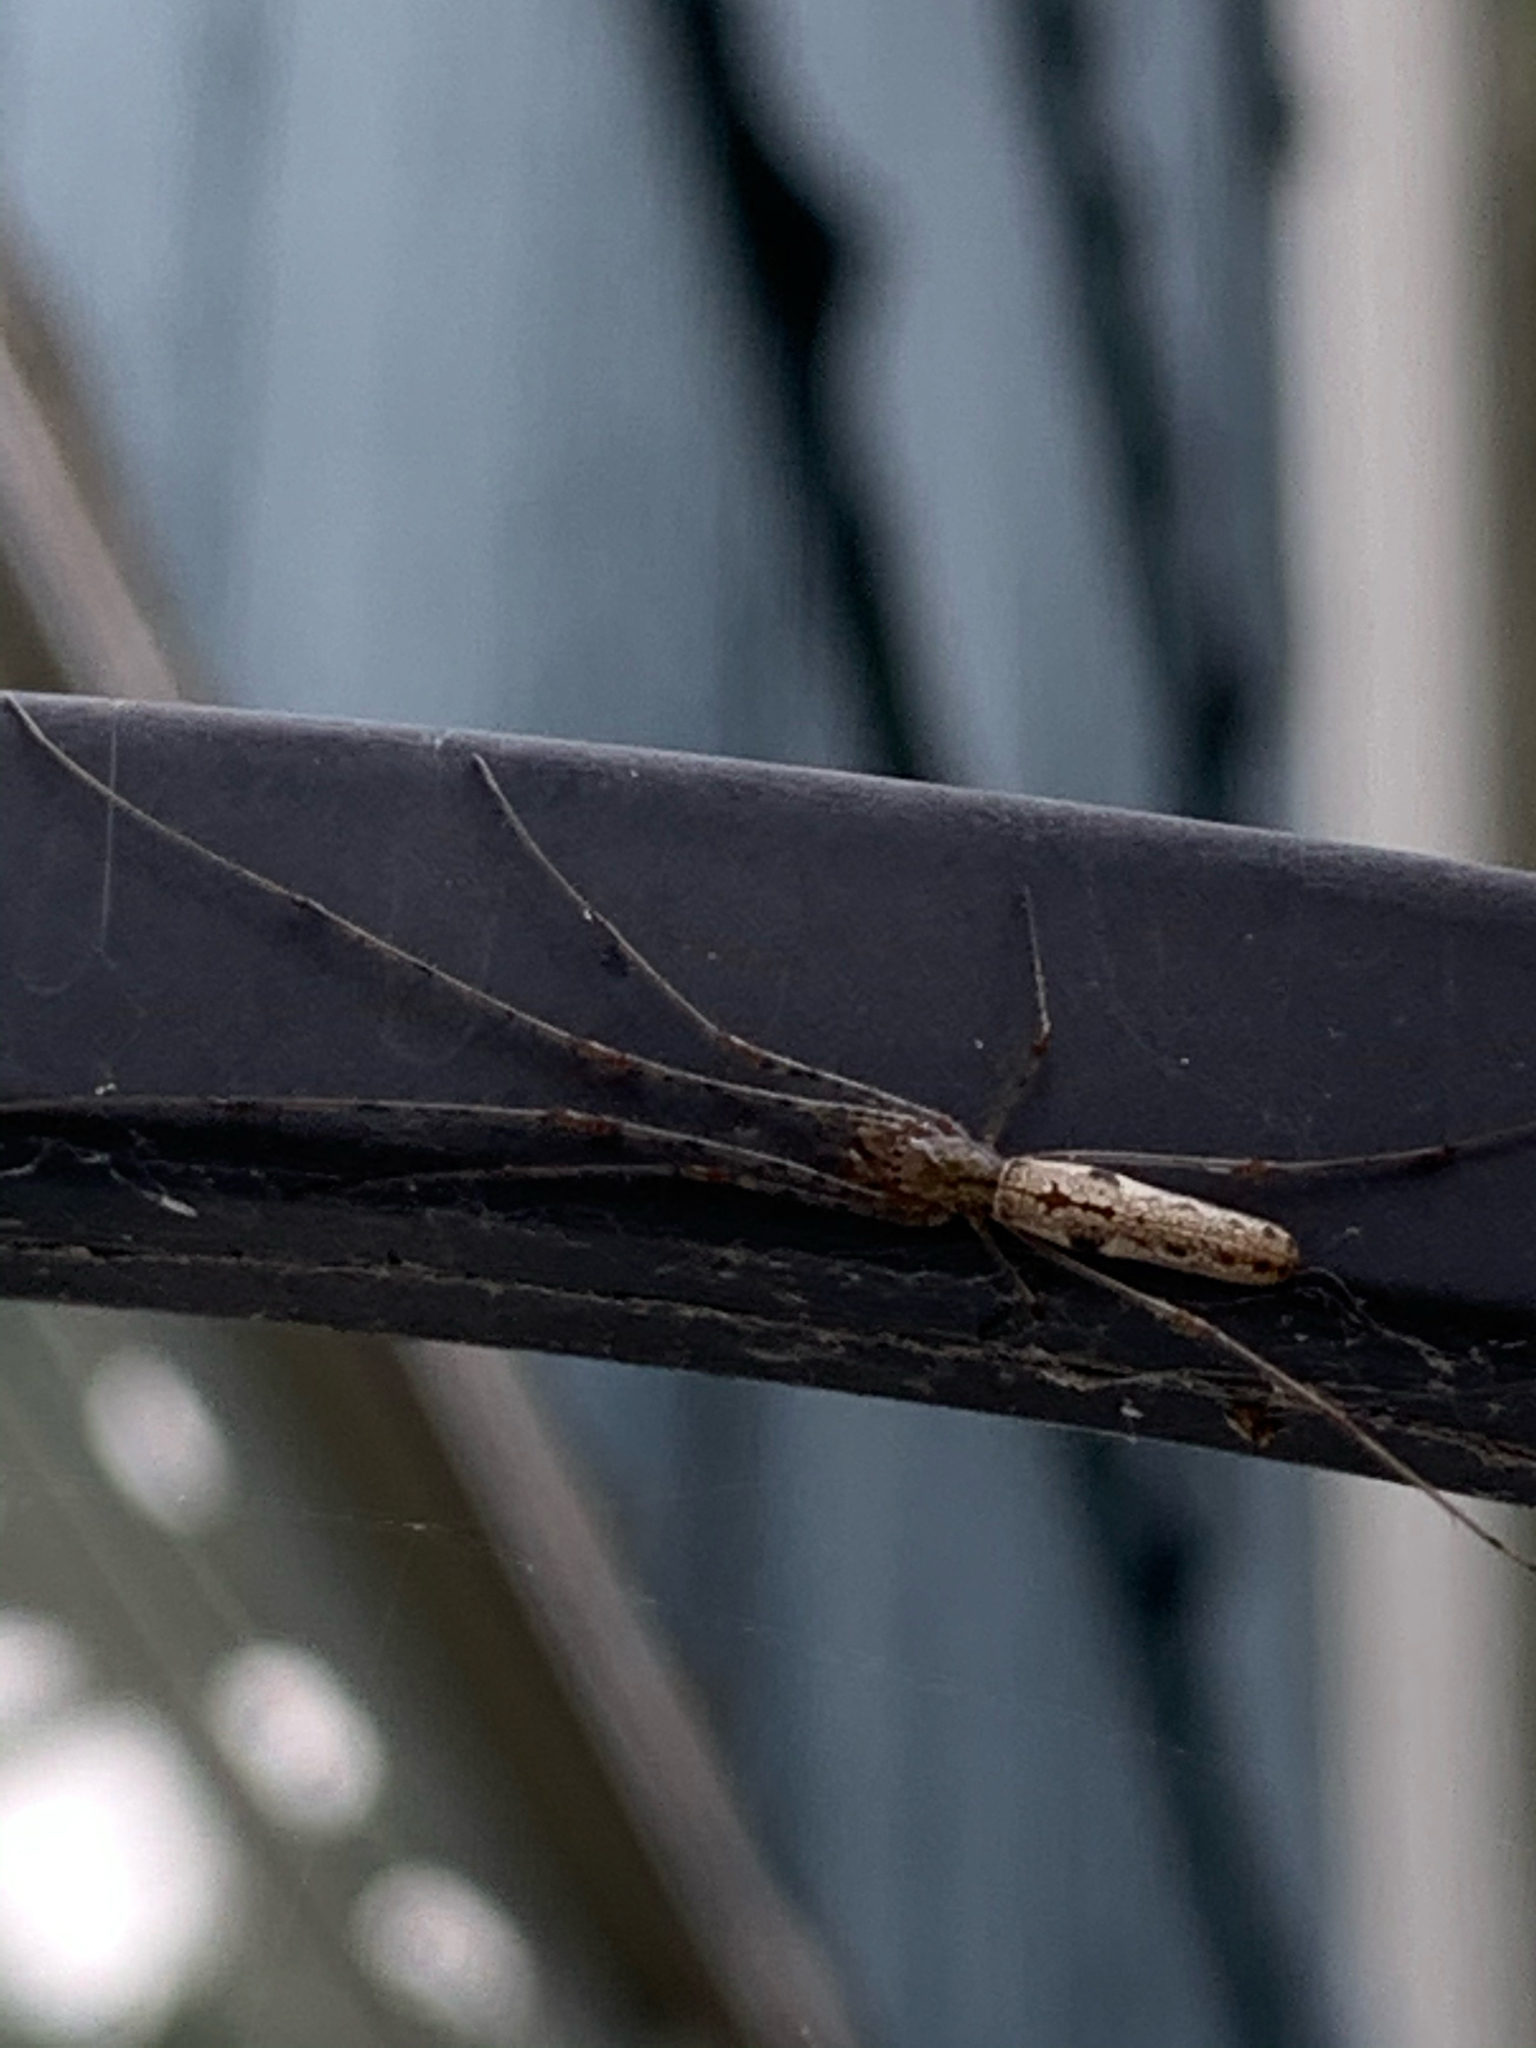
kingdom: Animalia
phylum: Arthropoda
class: Arachnida
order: Araneae
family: Tetragnathidae
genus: Tetragnatha
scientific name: Tetragnatha
